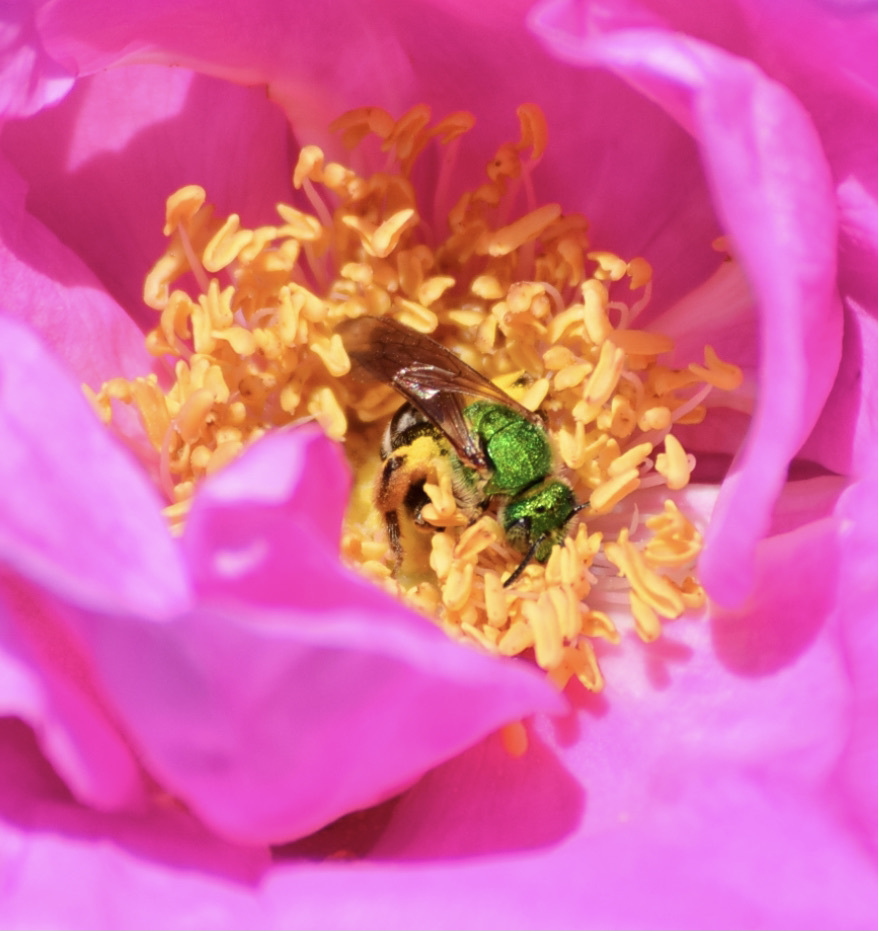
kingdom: Animalia
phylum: Arthropoda
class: Insecta
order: Hymenoptera
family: Halictidae
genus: Agapostemon
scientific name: Agapostemon virescens
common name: Bicolored striped sweat bee
